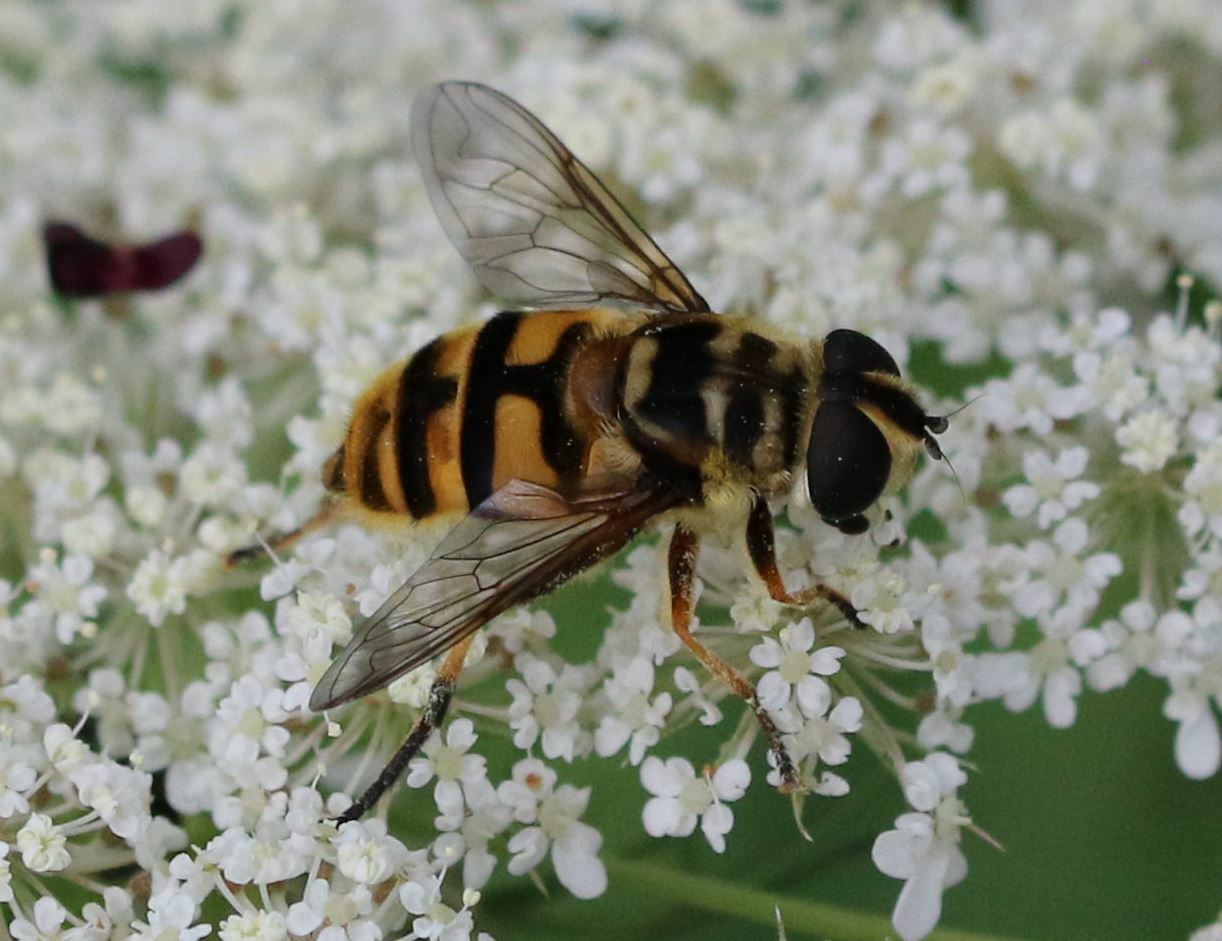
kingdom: Animalia
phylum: Arthropoda
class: Insecta
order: Diptera
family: Syrphidae
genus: Myathropa
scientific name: Myathropa florea
